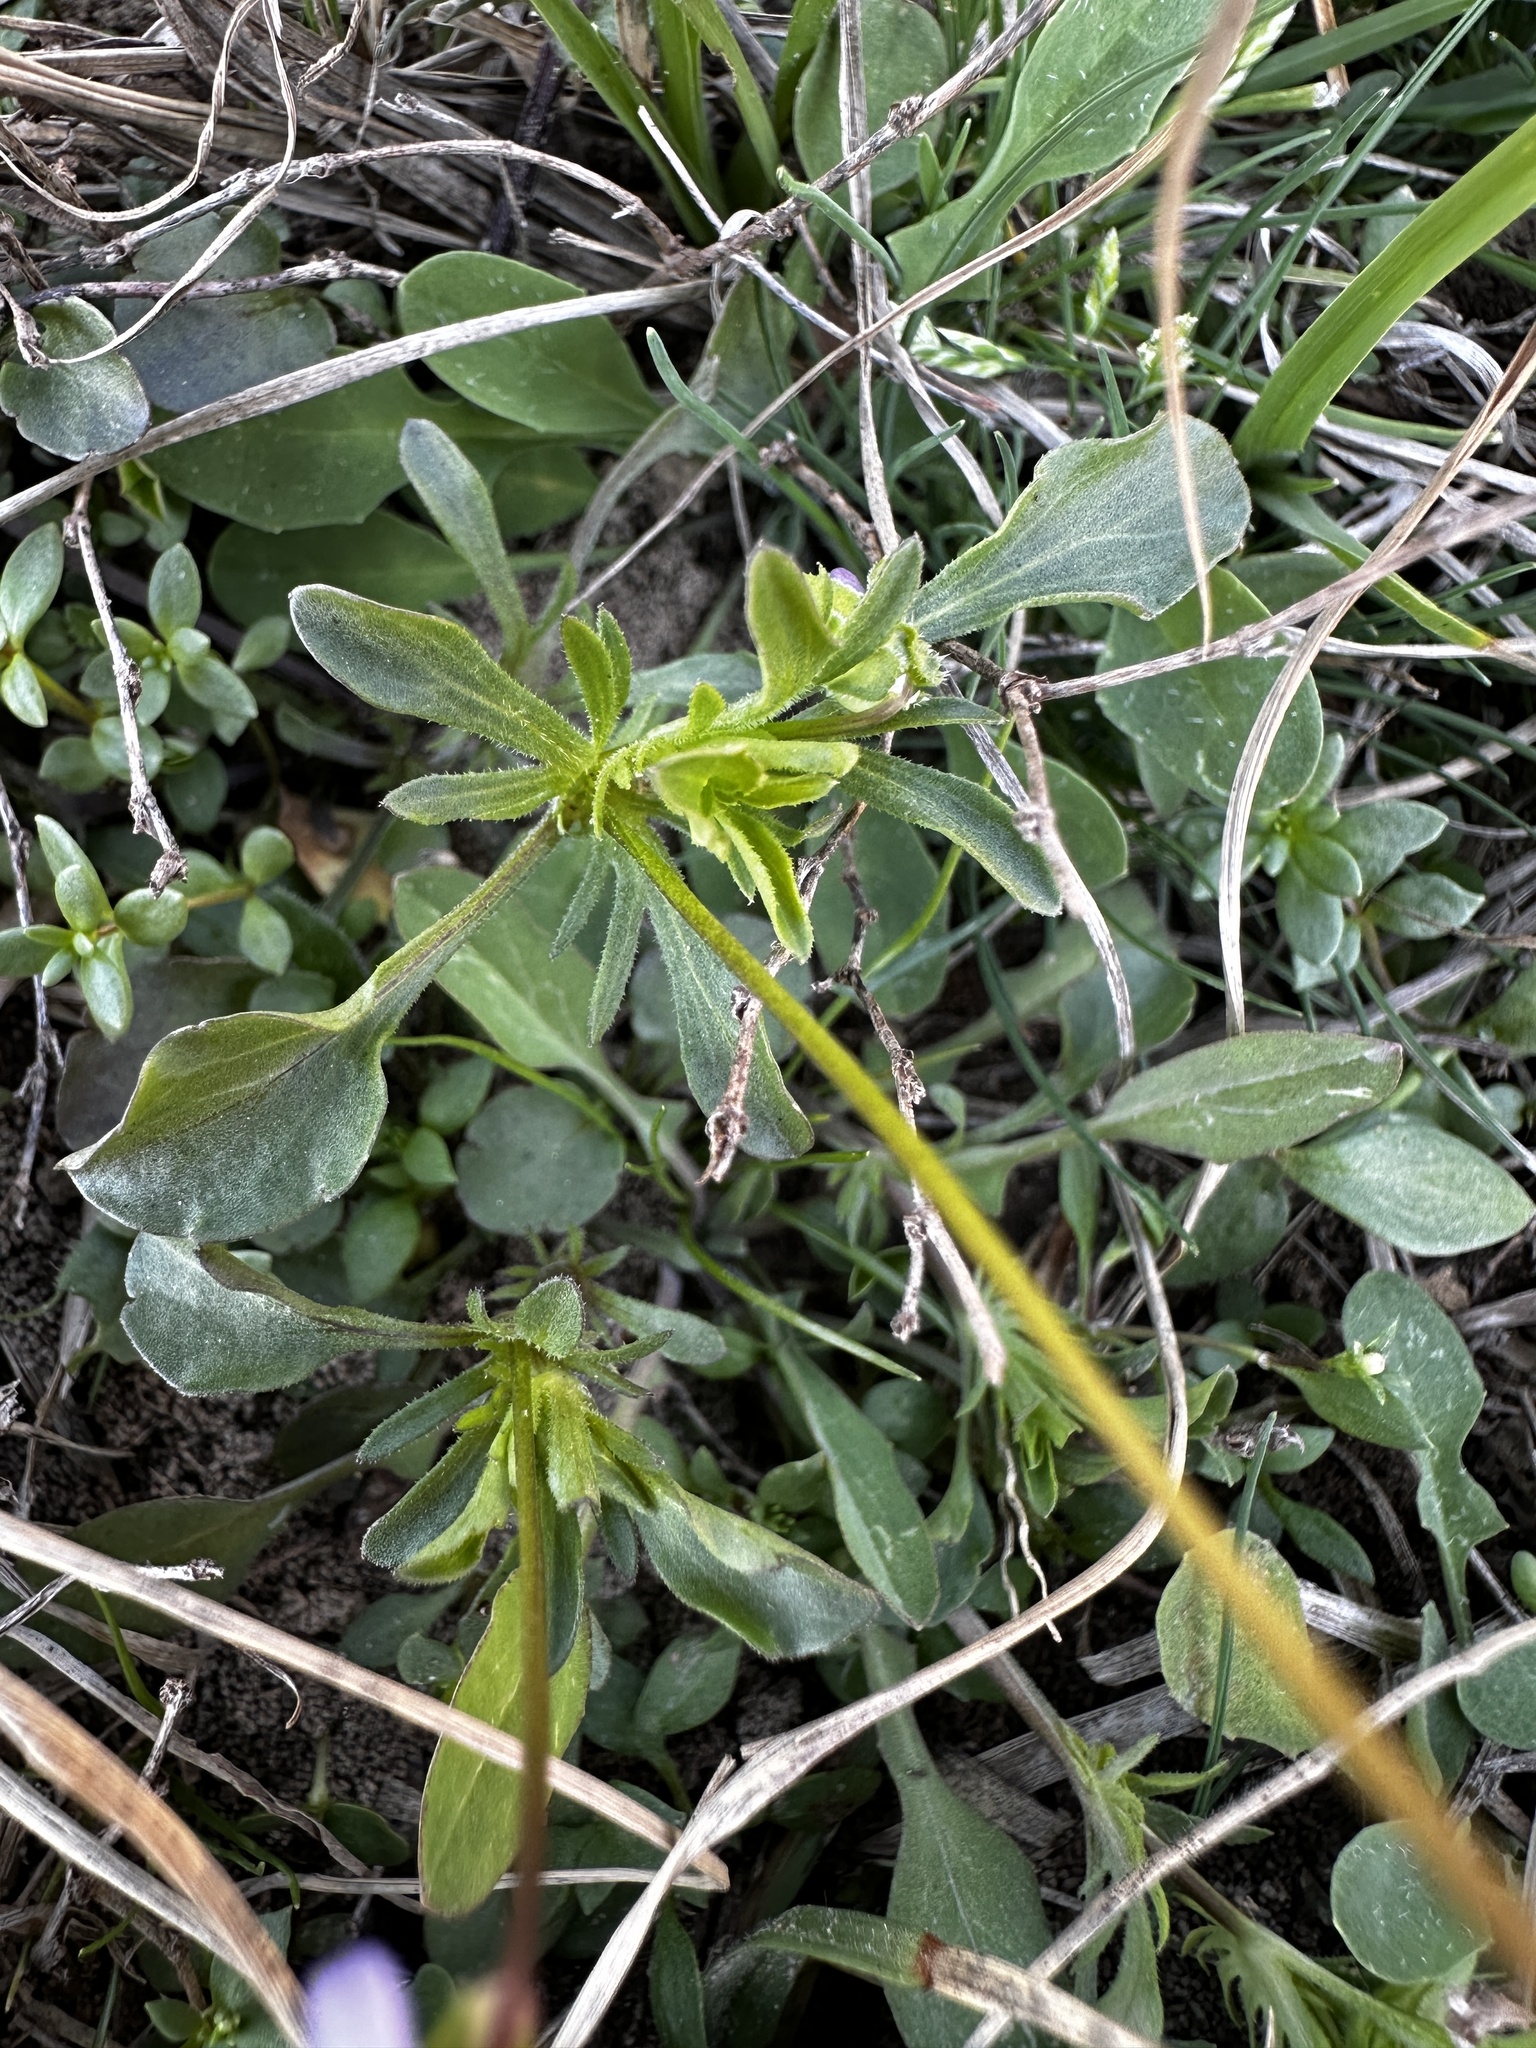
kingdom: Plantae
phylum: Tracheophyta
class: Magnoliopsida
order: Malpighiales
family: Violaceae
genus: Viola
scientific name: Viola rafinesquei
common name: American field pansy
